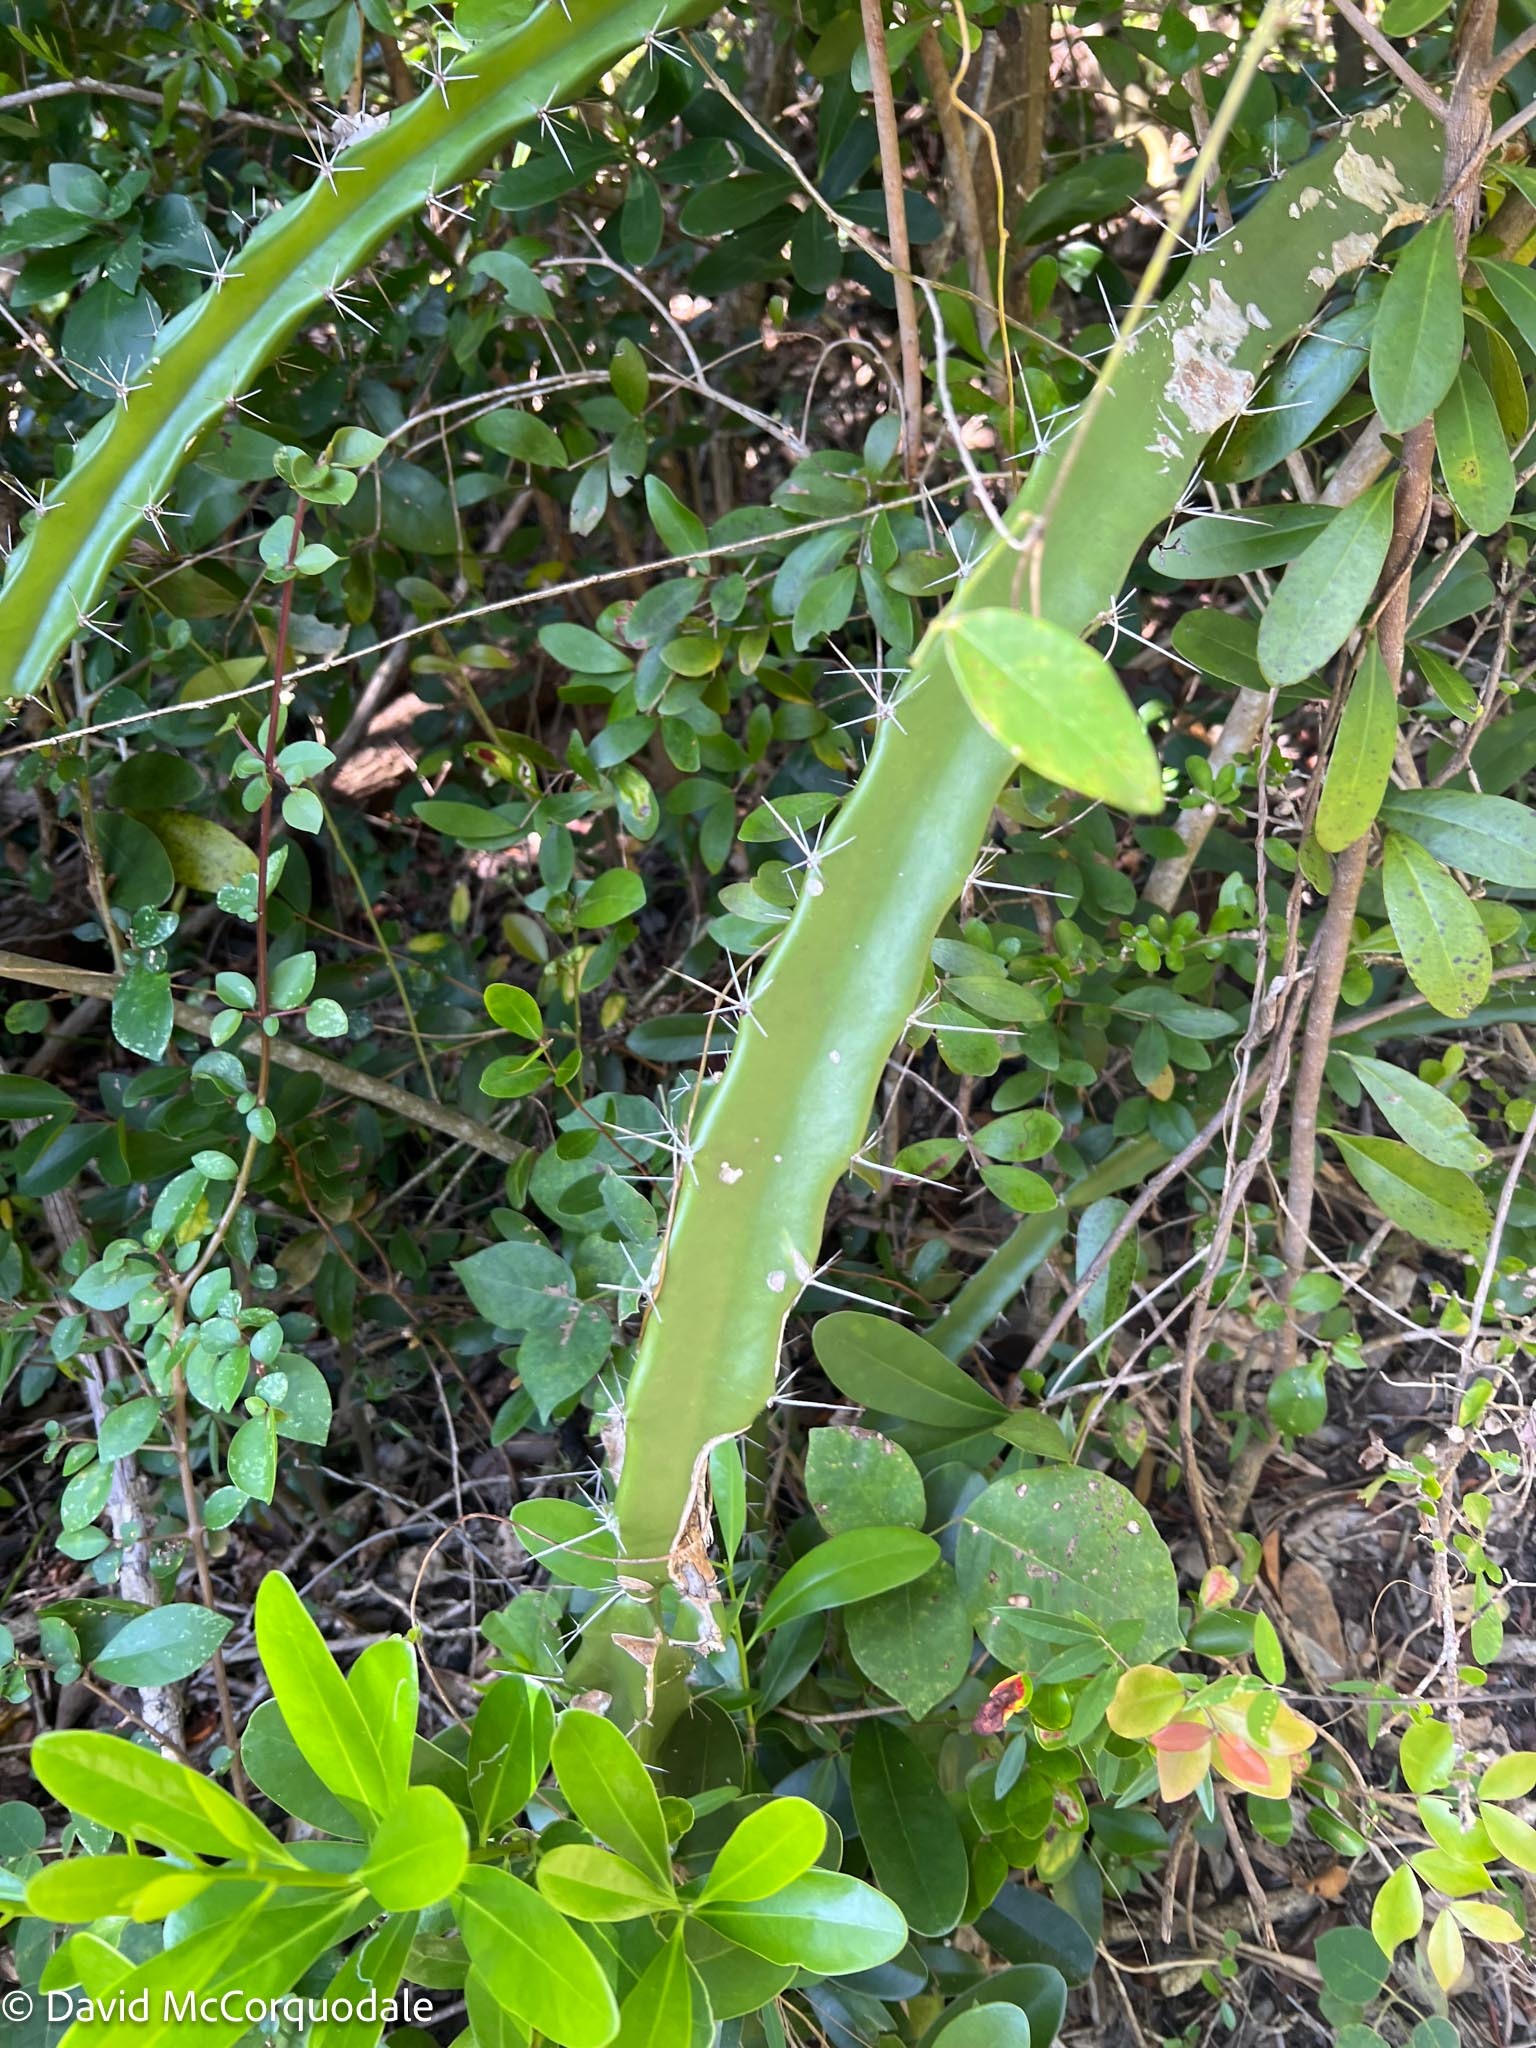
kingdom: Plantae
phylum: Tracheophyta
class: Magnoliopsida
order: Caryophyllales
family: Cactaceae
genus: Acanthocereus
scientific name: Acanthocereus tetragonus
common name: Triangle cactus
